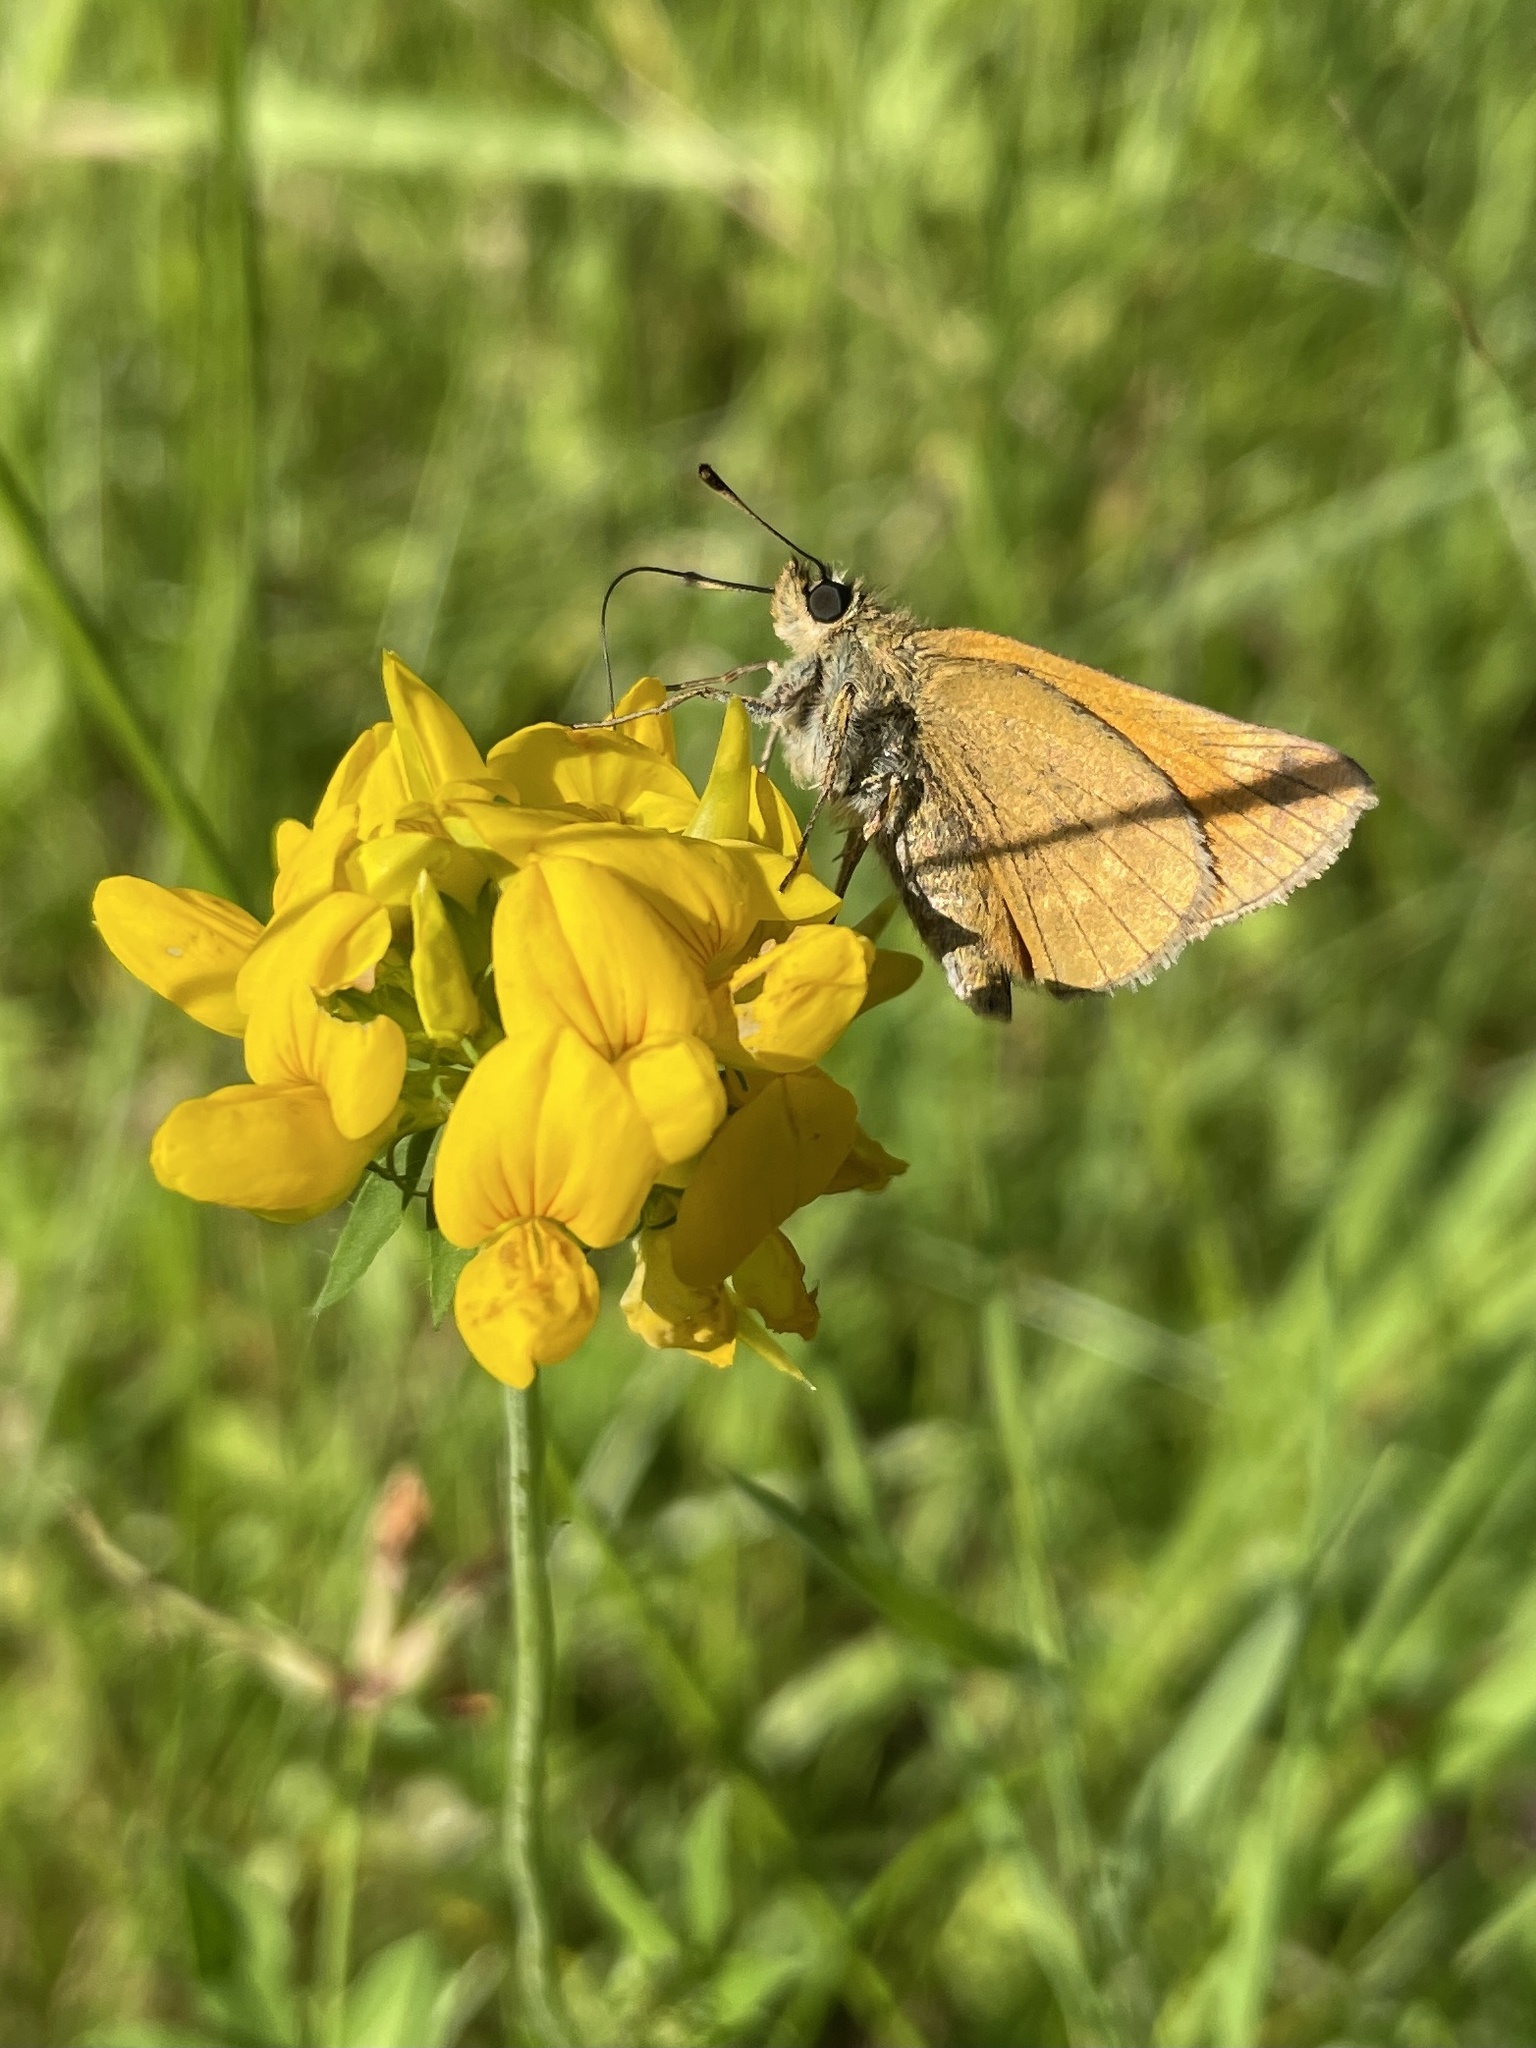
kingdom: Animalia
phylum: Arthropoda
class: Insecta
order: Lepidoptera
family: Hesperiidae
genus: Ochlodes
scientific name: Ochlodes venata
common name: Large skipper
